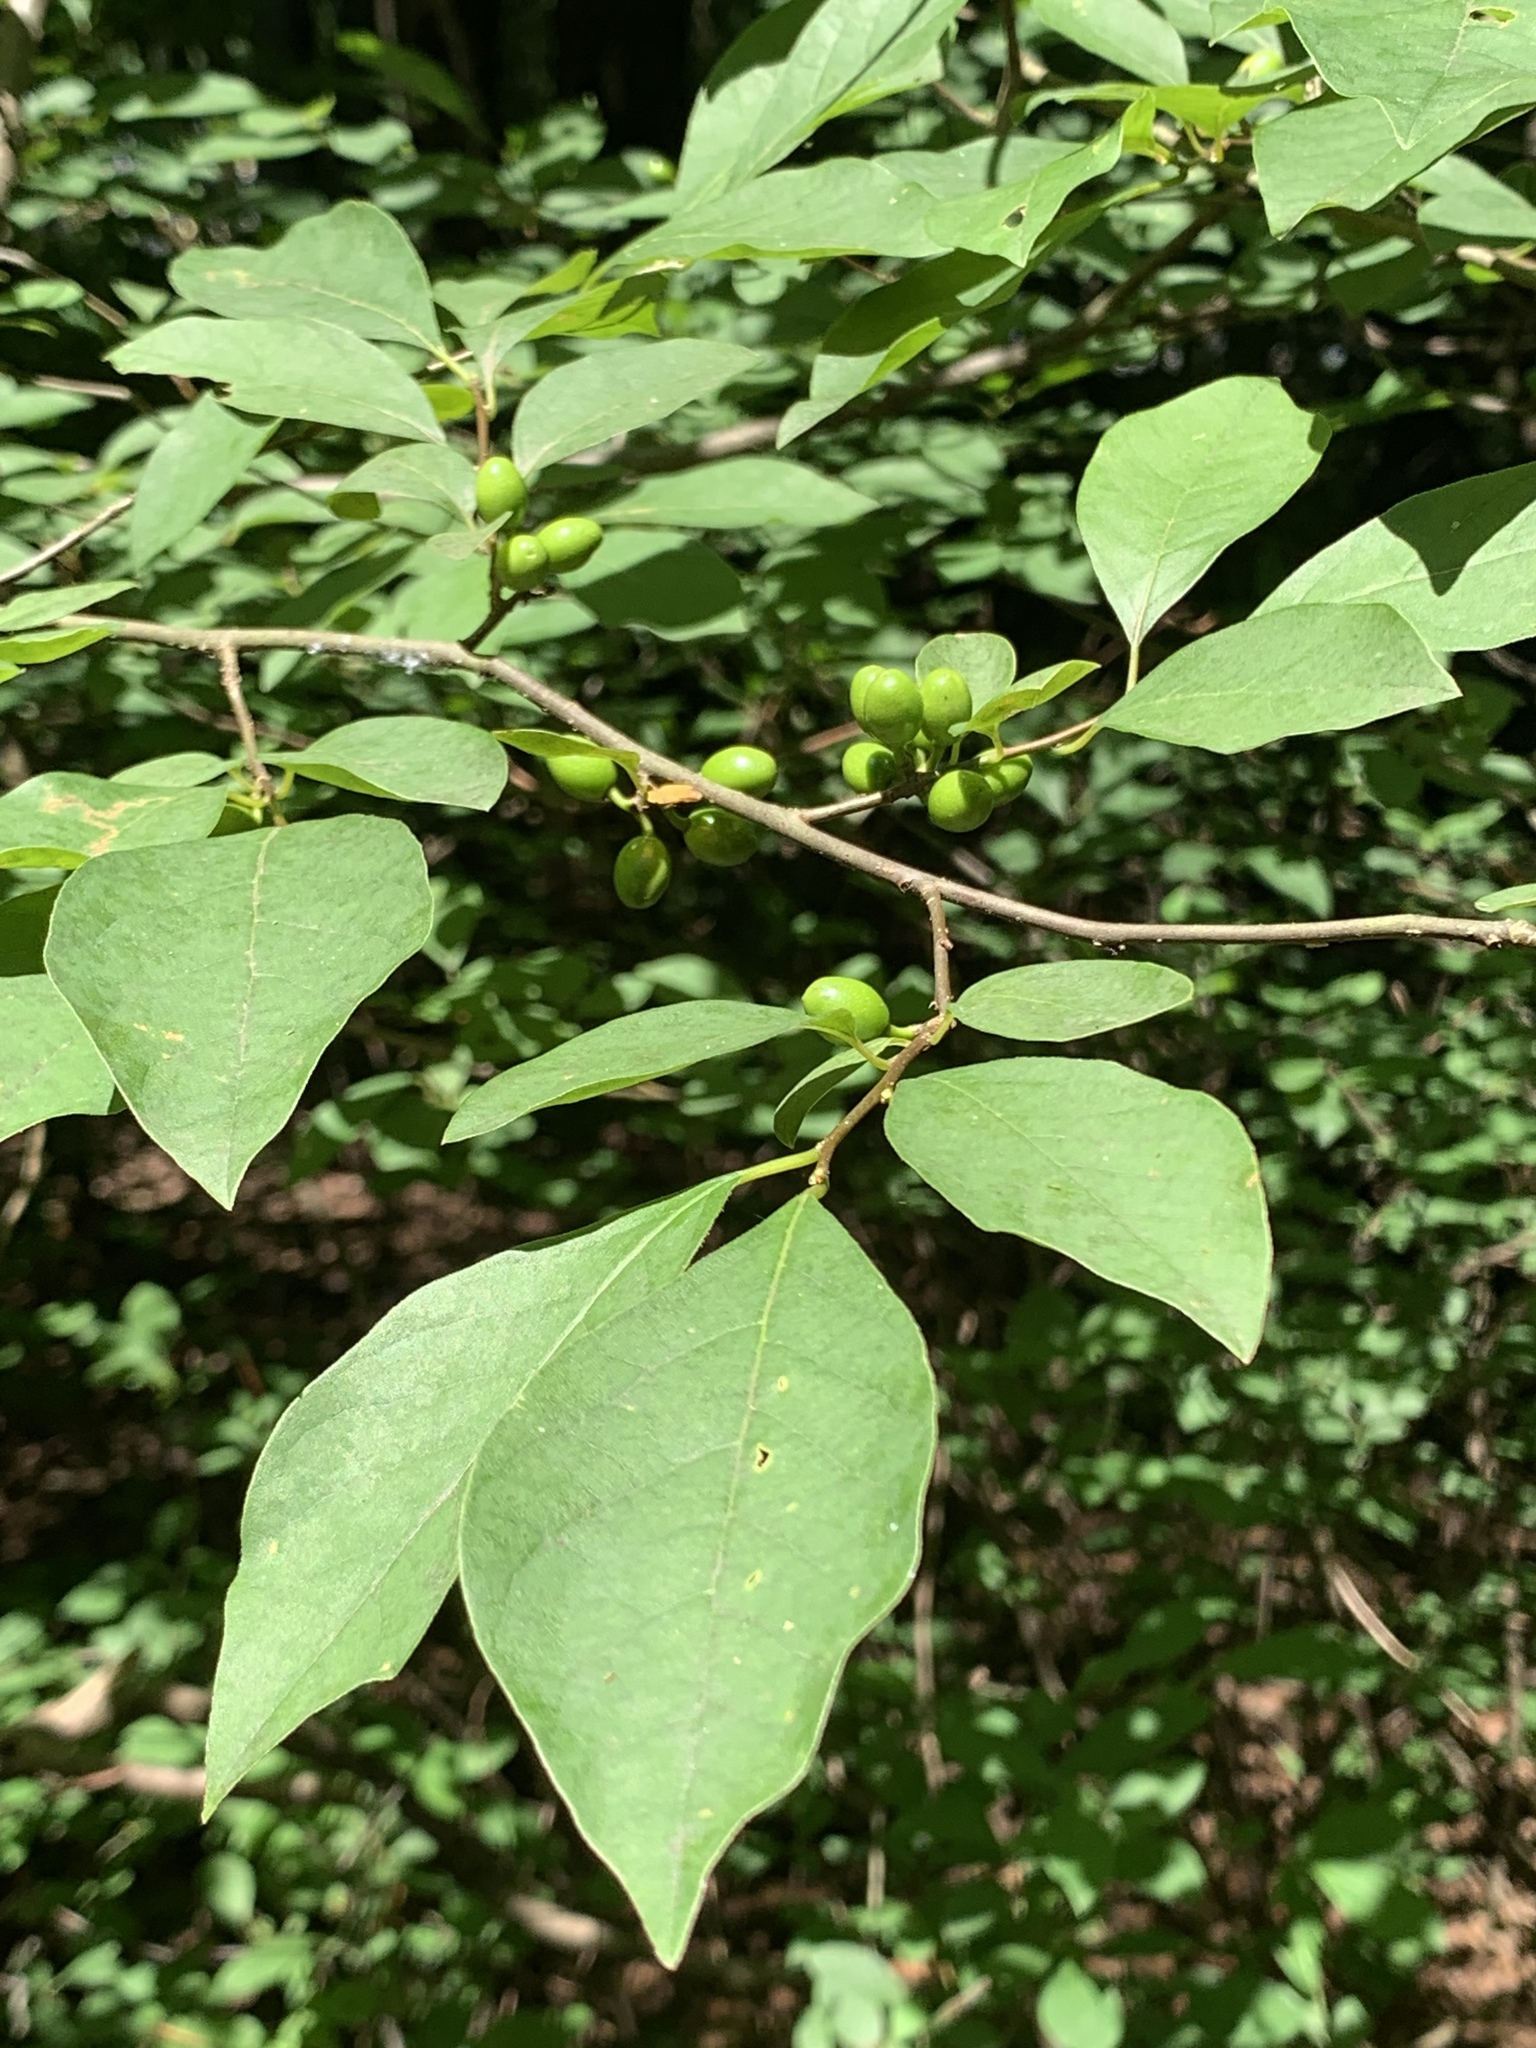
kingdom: Plantae
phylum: Tracheophyta
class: Magnoliopsida
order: Laurales
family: Lauraceae
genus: Lindera
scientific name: Lindera benzoin
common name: Spicebush
